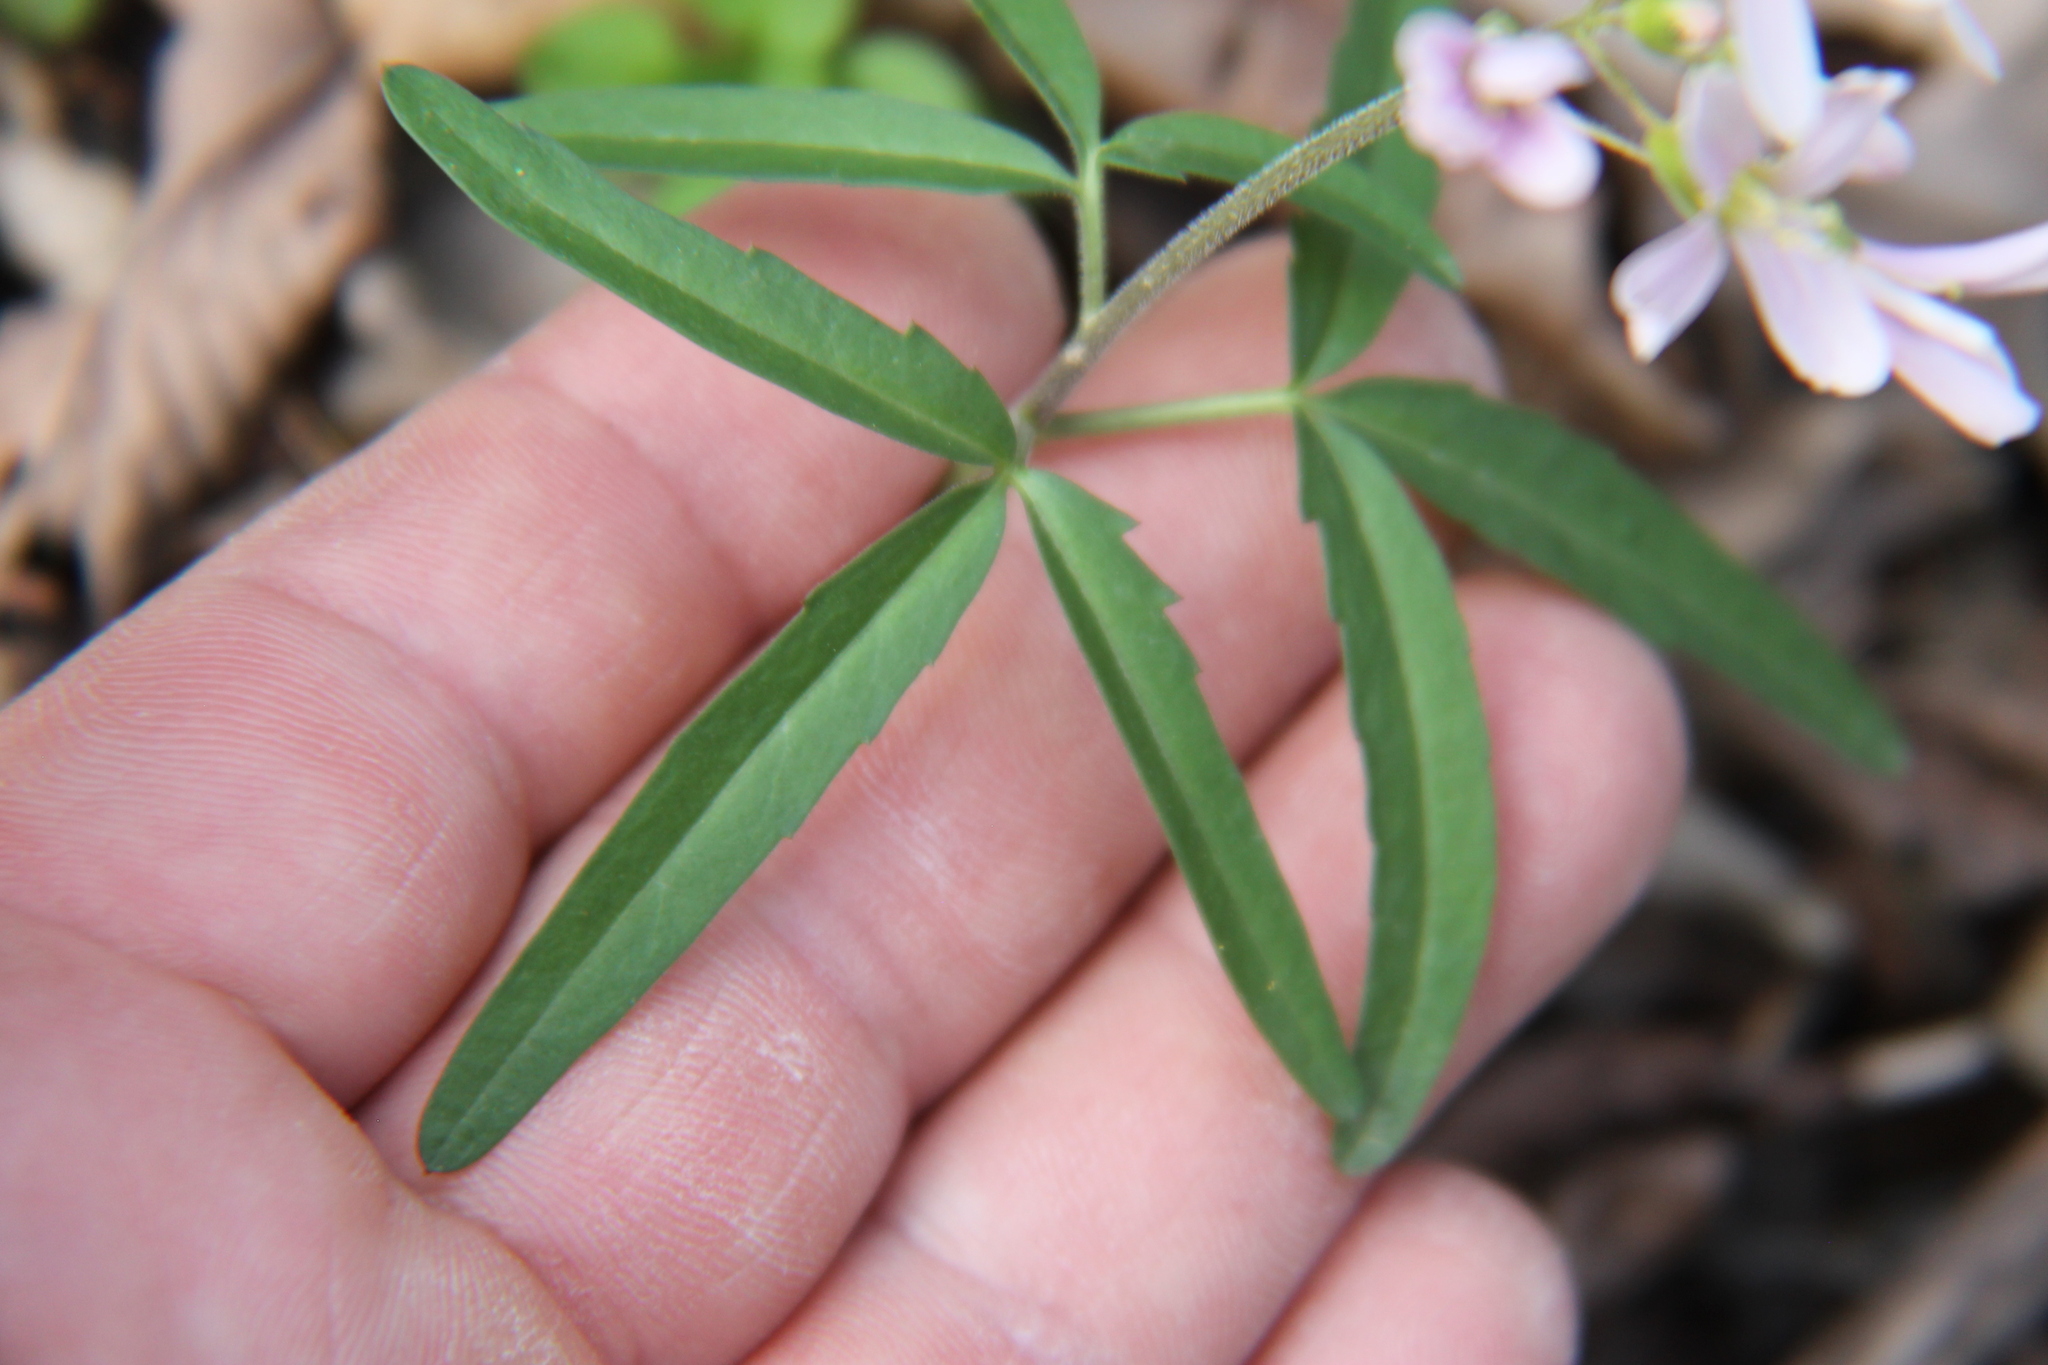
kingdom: Plantae
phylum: Tracheophyta
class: Magnoliopsida
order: Brassicales
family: Brassicaceae
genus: Cardamine
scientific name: Cardamine concatenata
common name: Cut-leaf toothcup
